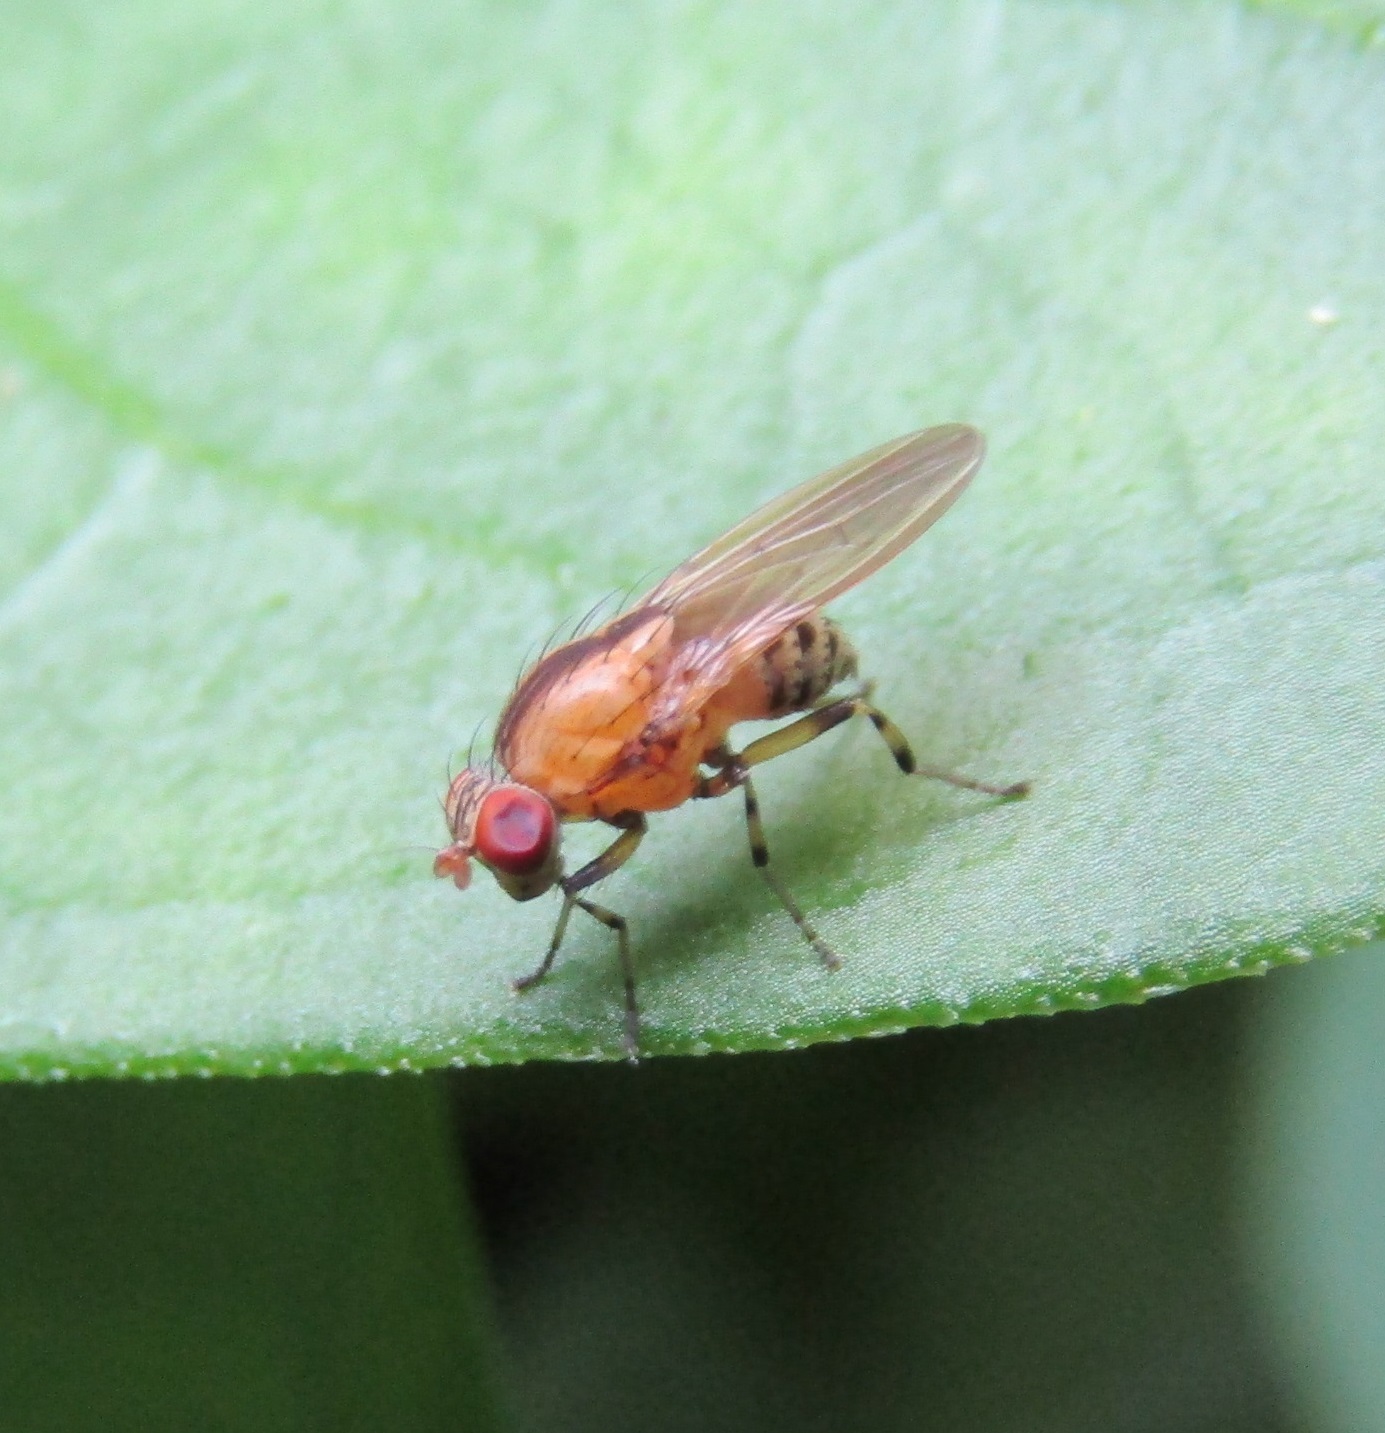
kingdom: Animalia
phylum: Arthropoda
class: Insecta
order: Diptera
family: Lauxaniidae
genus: Sapromyza
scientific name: Sapromyza neozelandica
